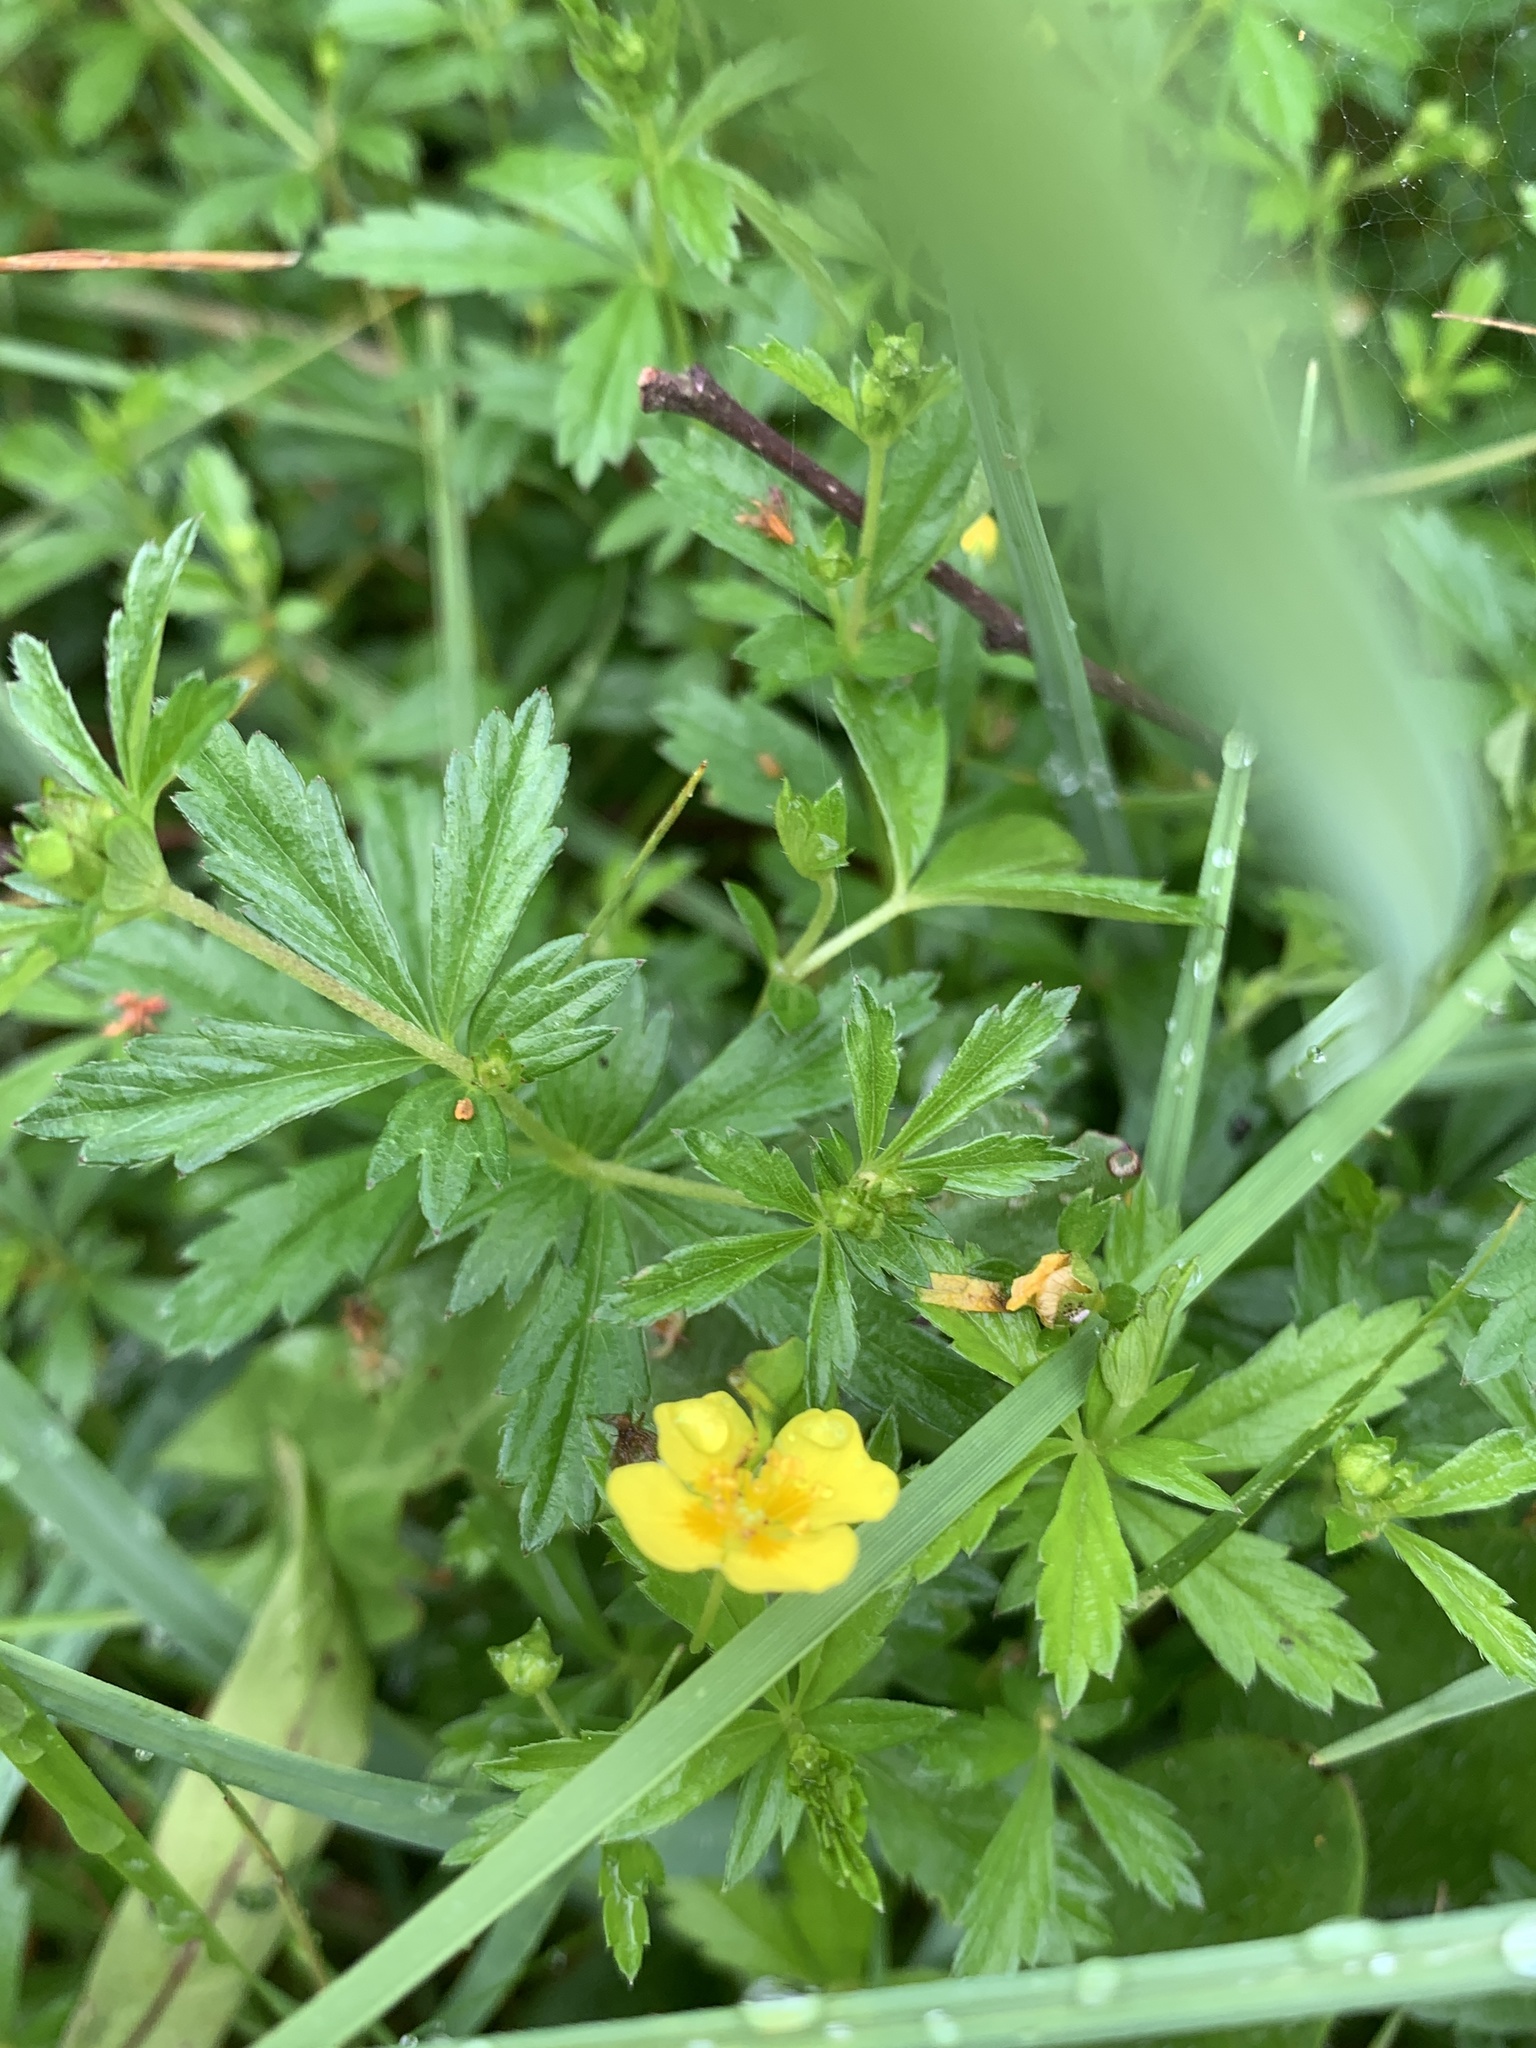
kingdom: Plantae
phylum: Tracheophyta
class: Magnoliopsida
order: Rosales
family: Rosaceae
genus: Potentilla
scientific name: Potentilla erecta
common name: Tormentil
